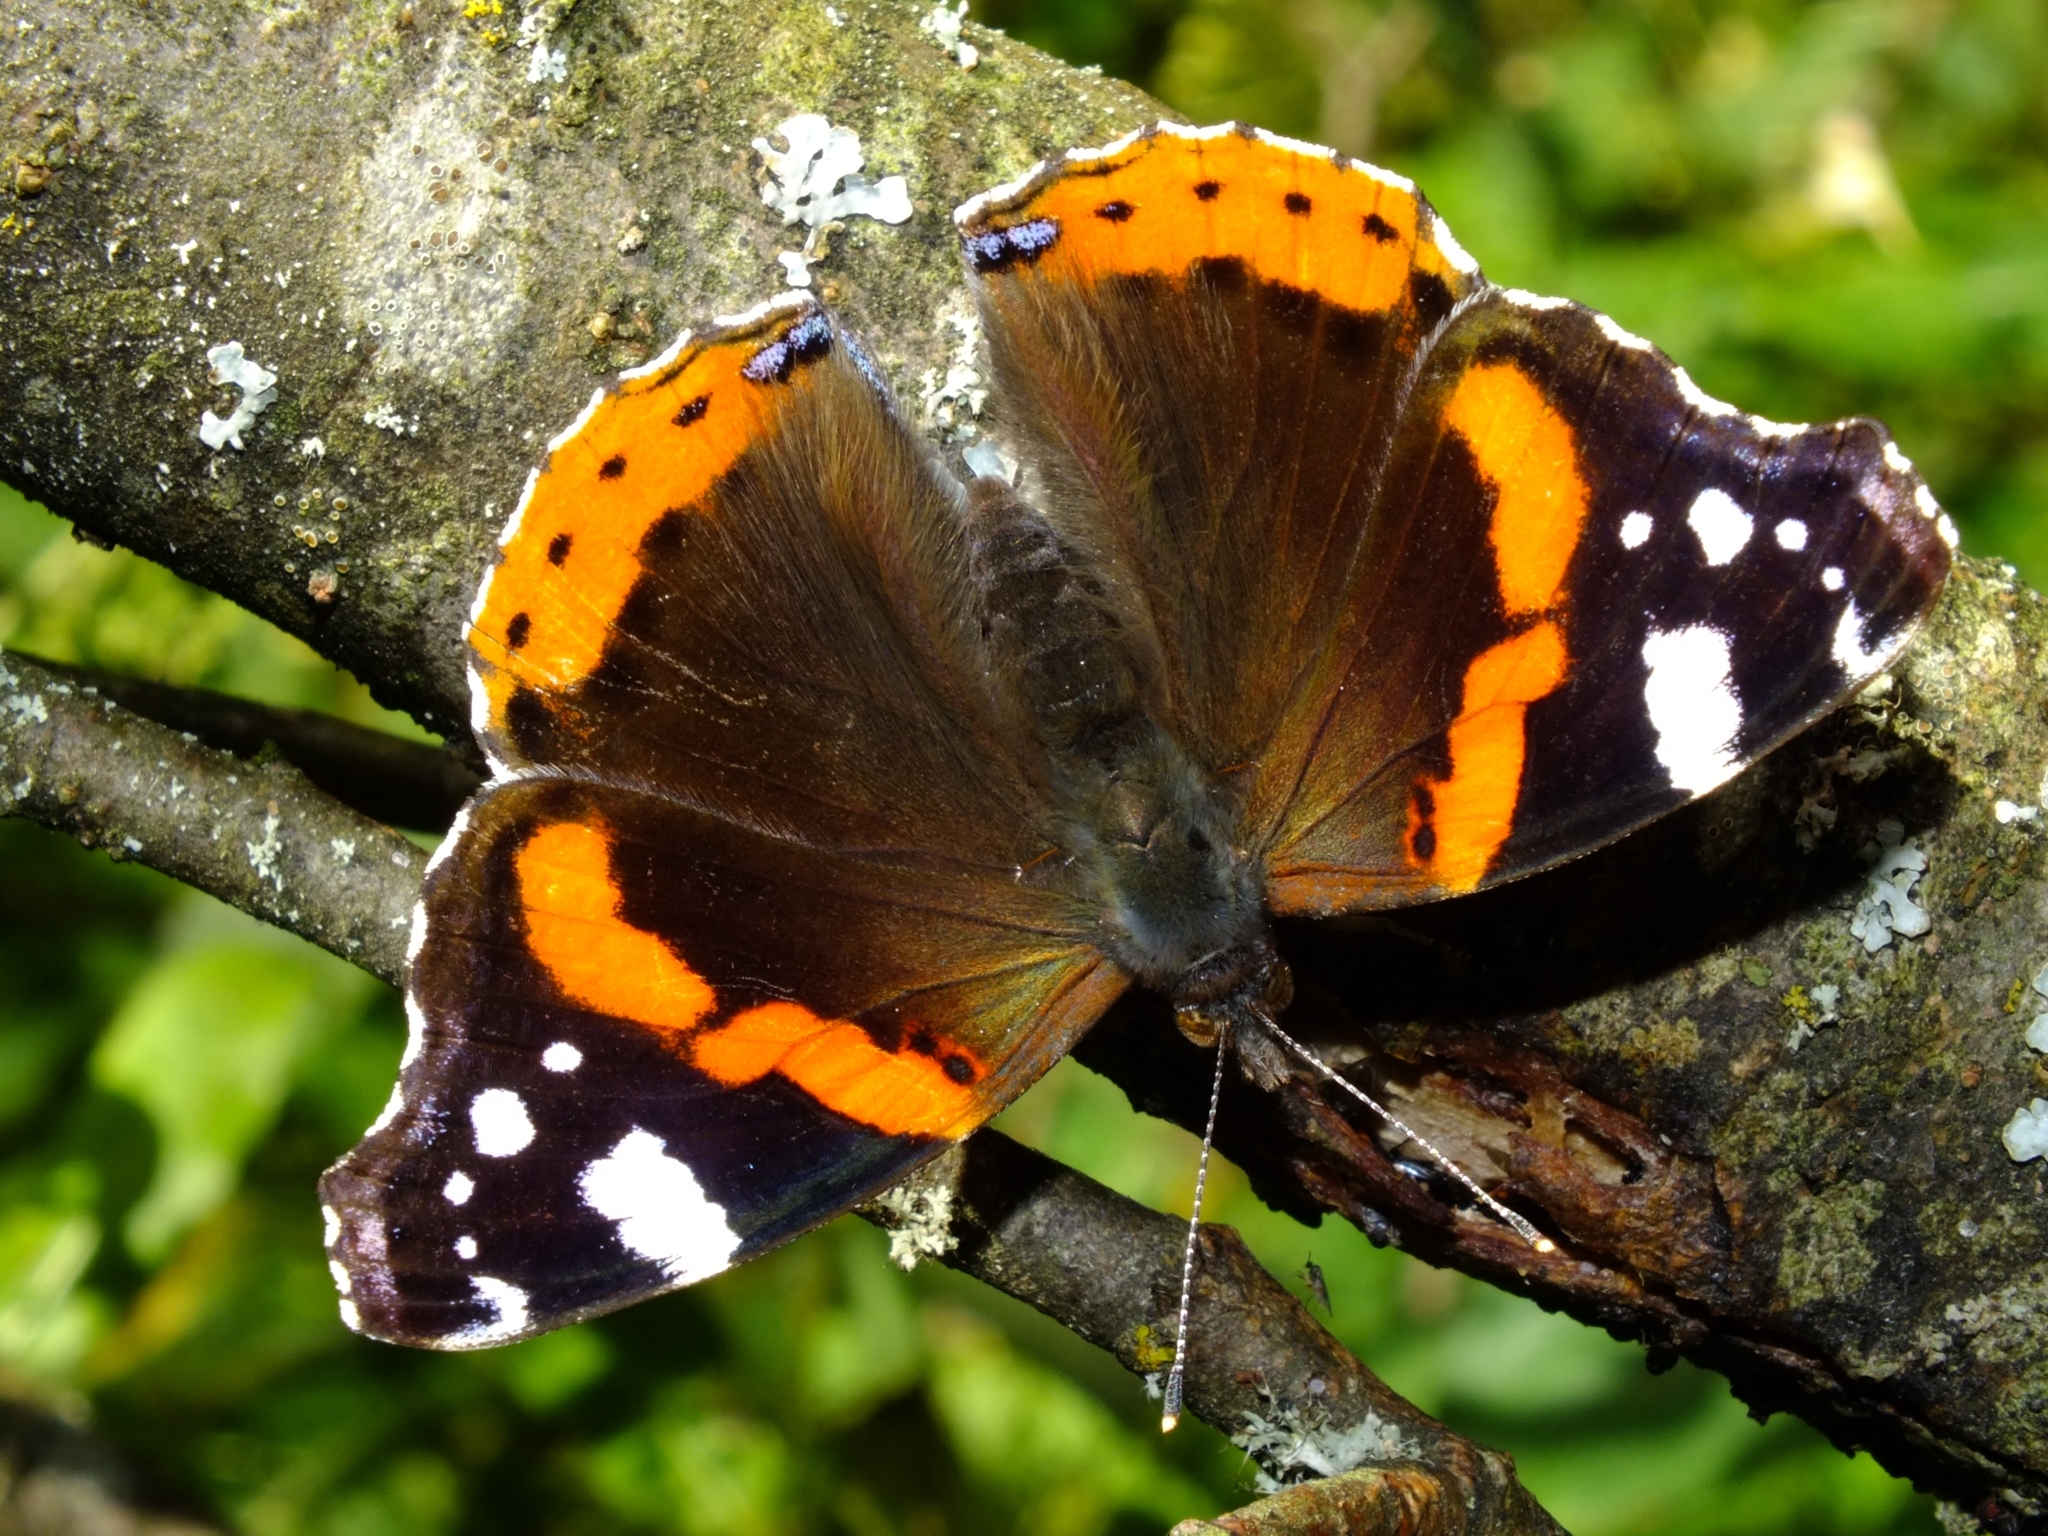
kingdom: Animalia
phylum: Arthropoda
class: Insecta
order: Lepidoptera
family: Nymphalidae
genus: Vanessa
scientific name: Vanessa atalanta
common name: Red admiral
